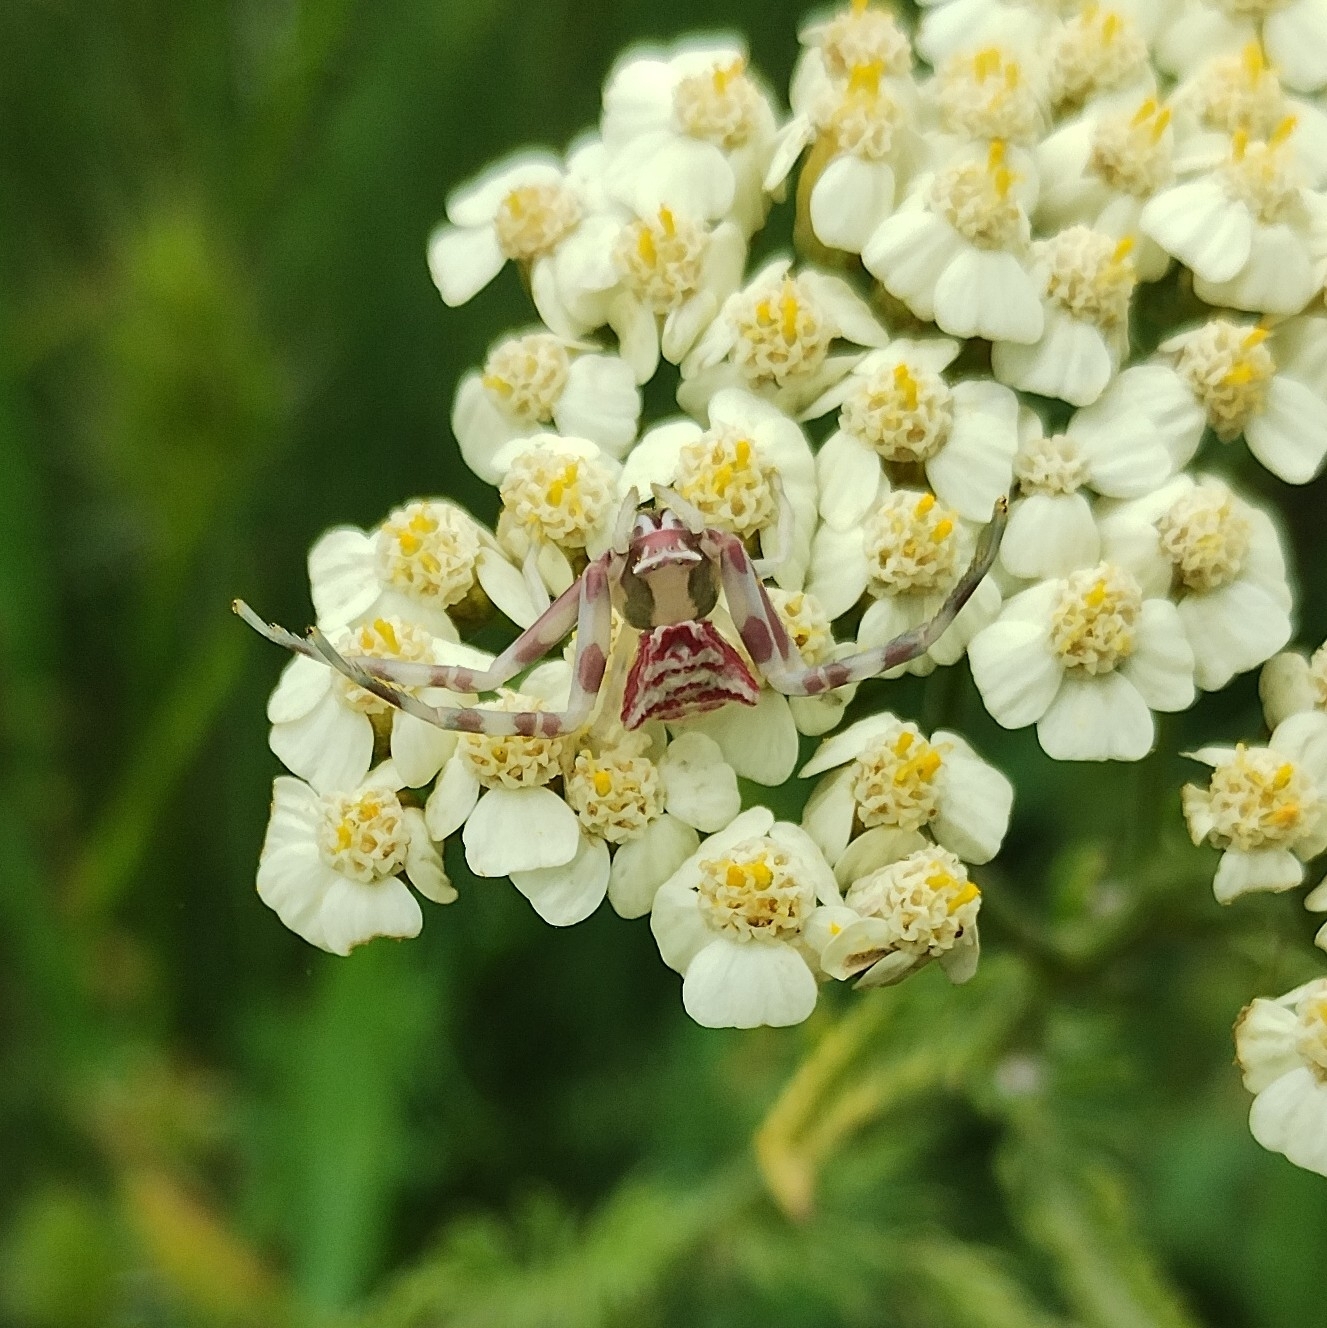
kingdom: Animalia
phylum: Arthropoda
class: Arachnida
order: Araneae
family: Thomisidae
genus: Thomisus
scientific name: Thomisus onustus
